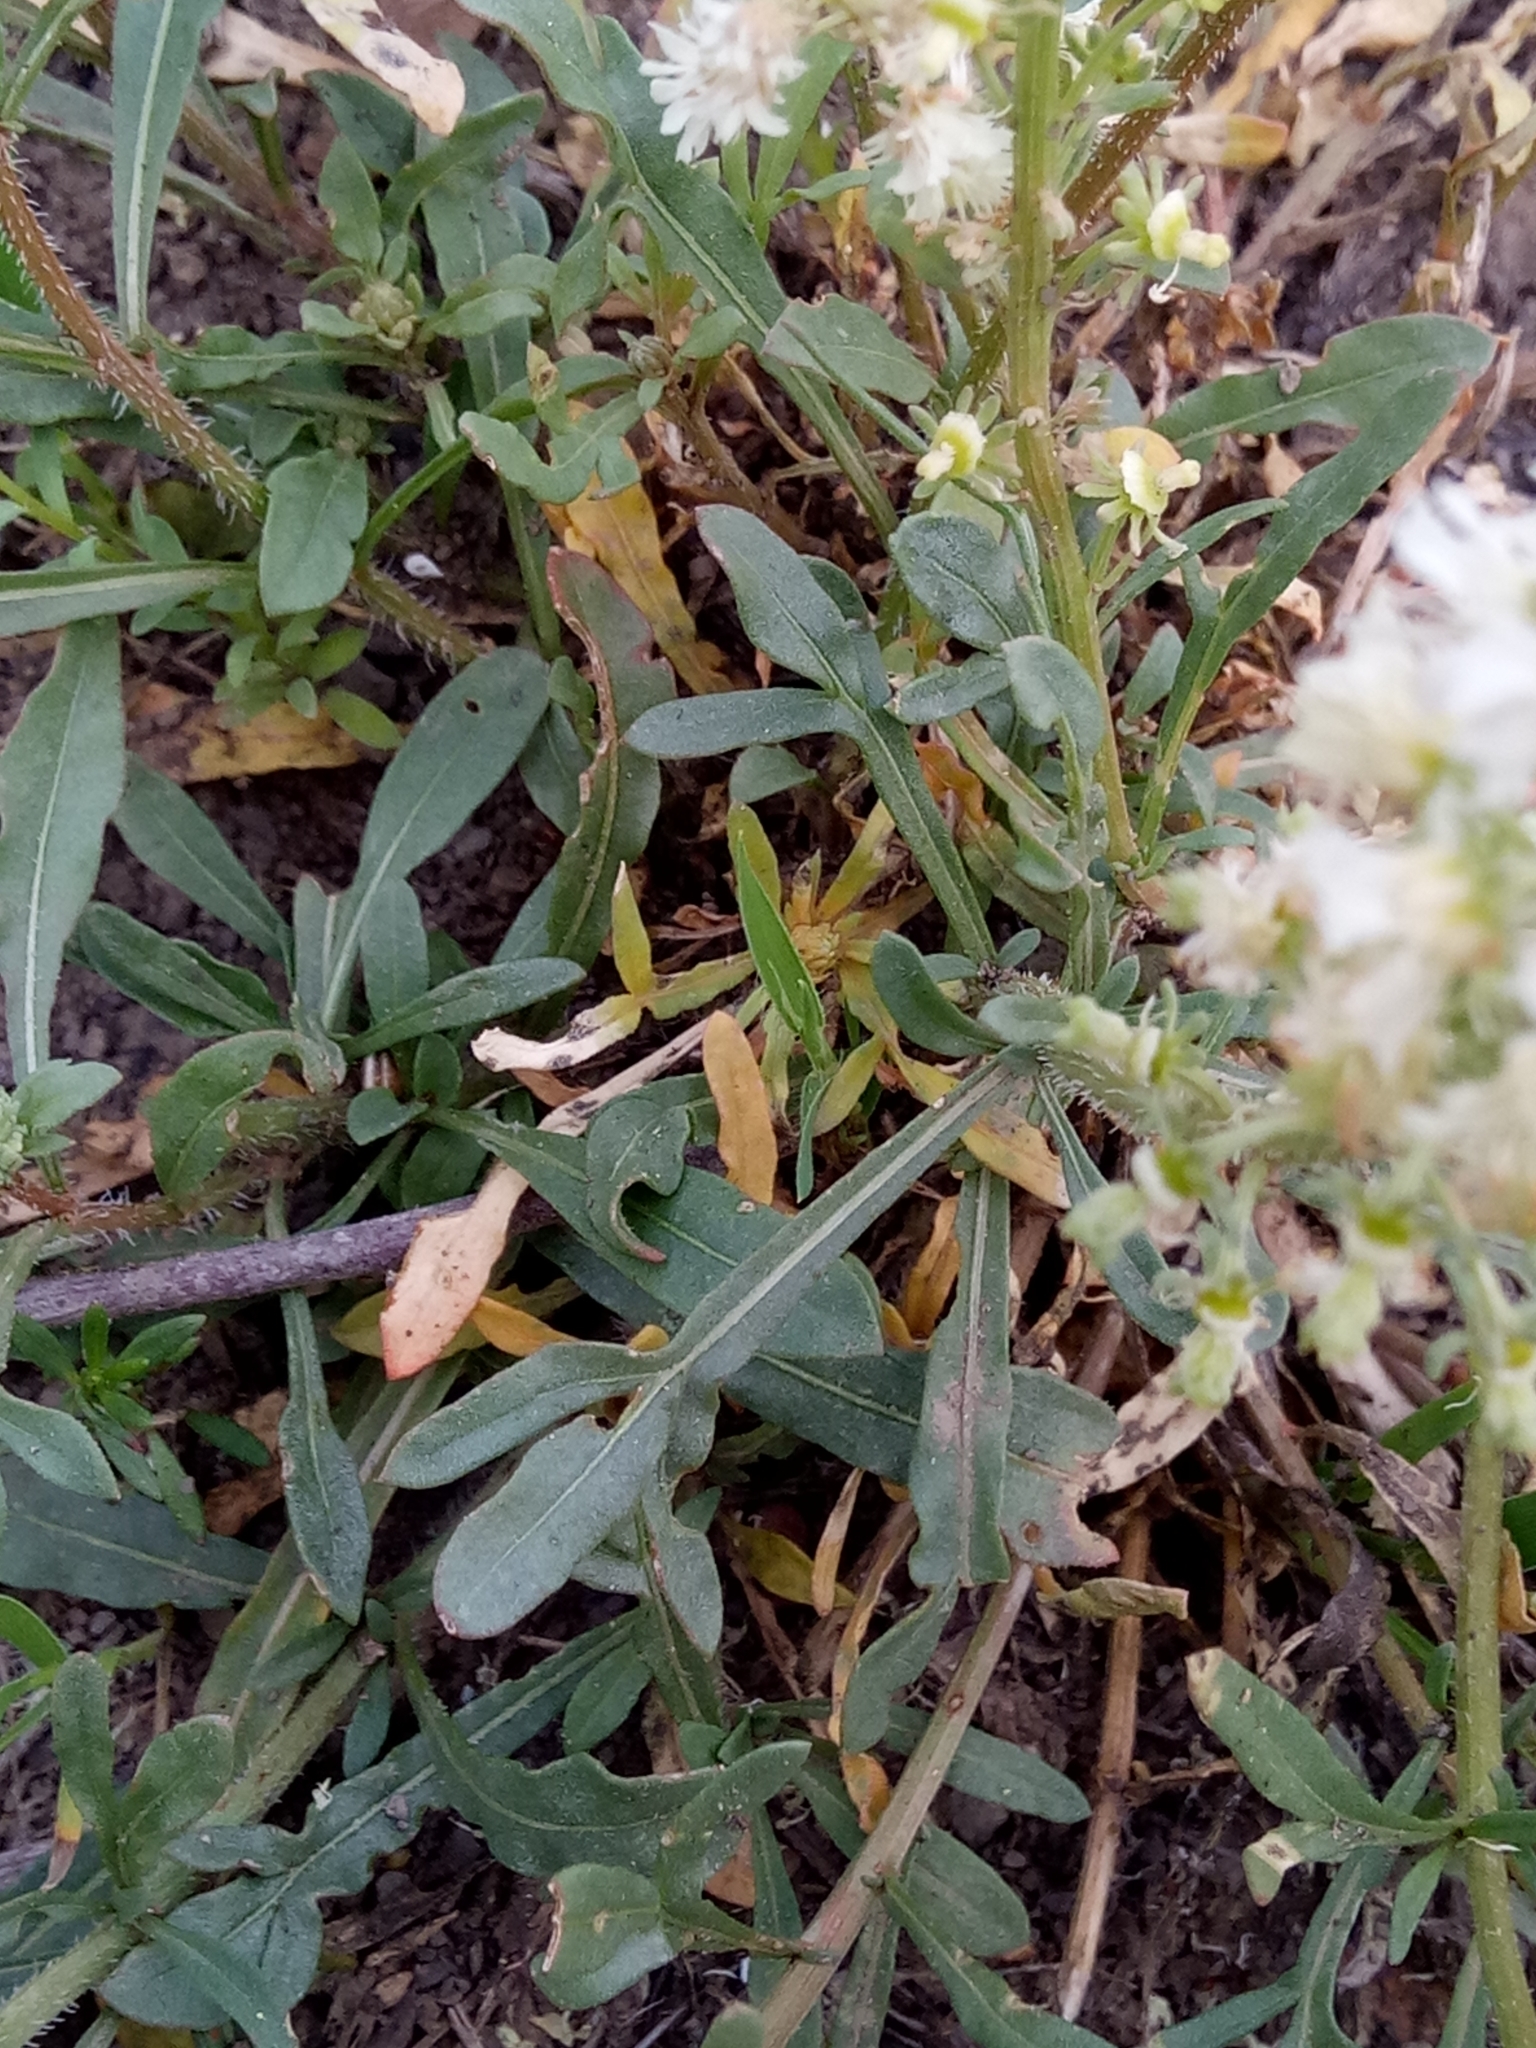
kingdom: Plantae
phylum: Tracheophyta
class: Magnoliopsida
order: Brassicales
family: Resedaceae
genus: Reseda
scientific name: Reseda duriaeana
